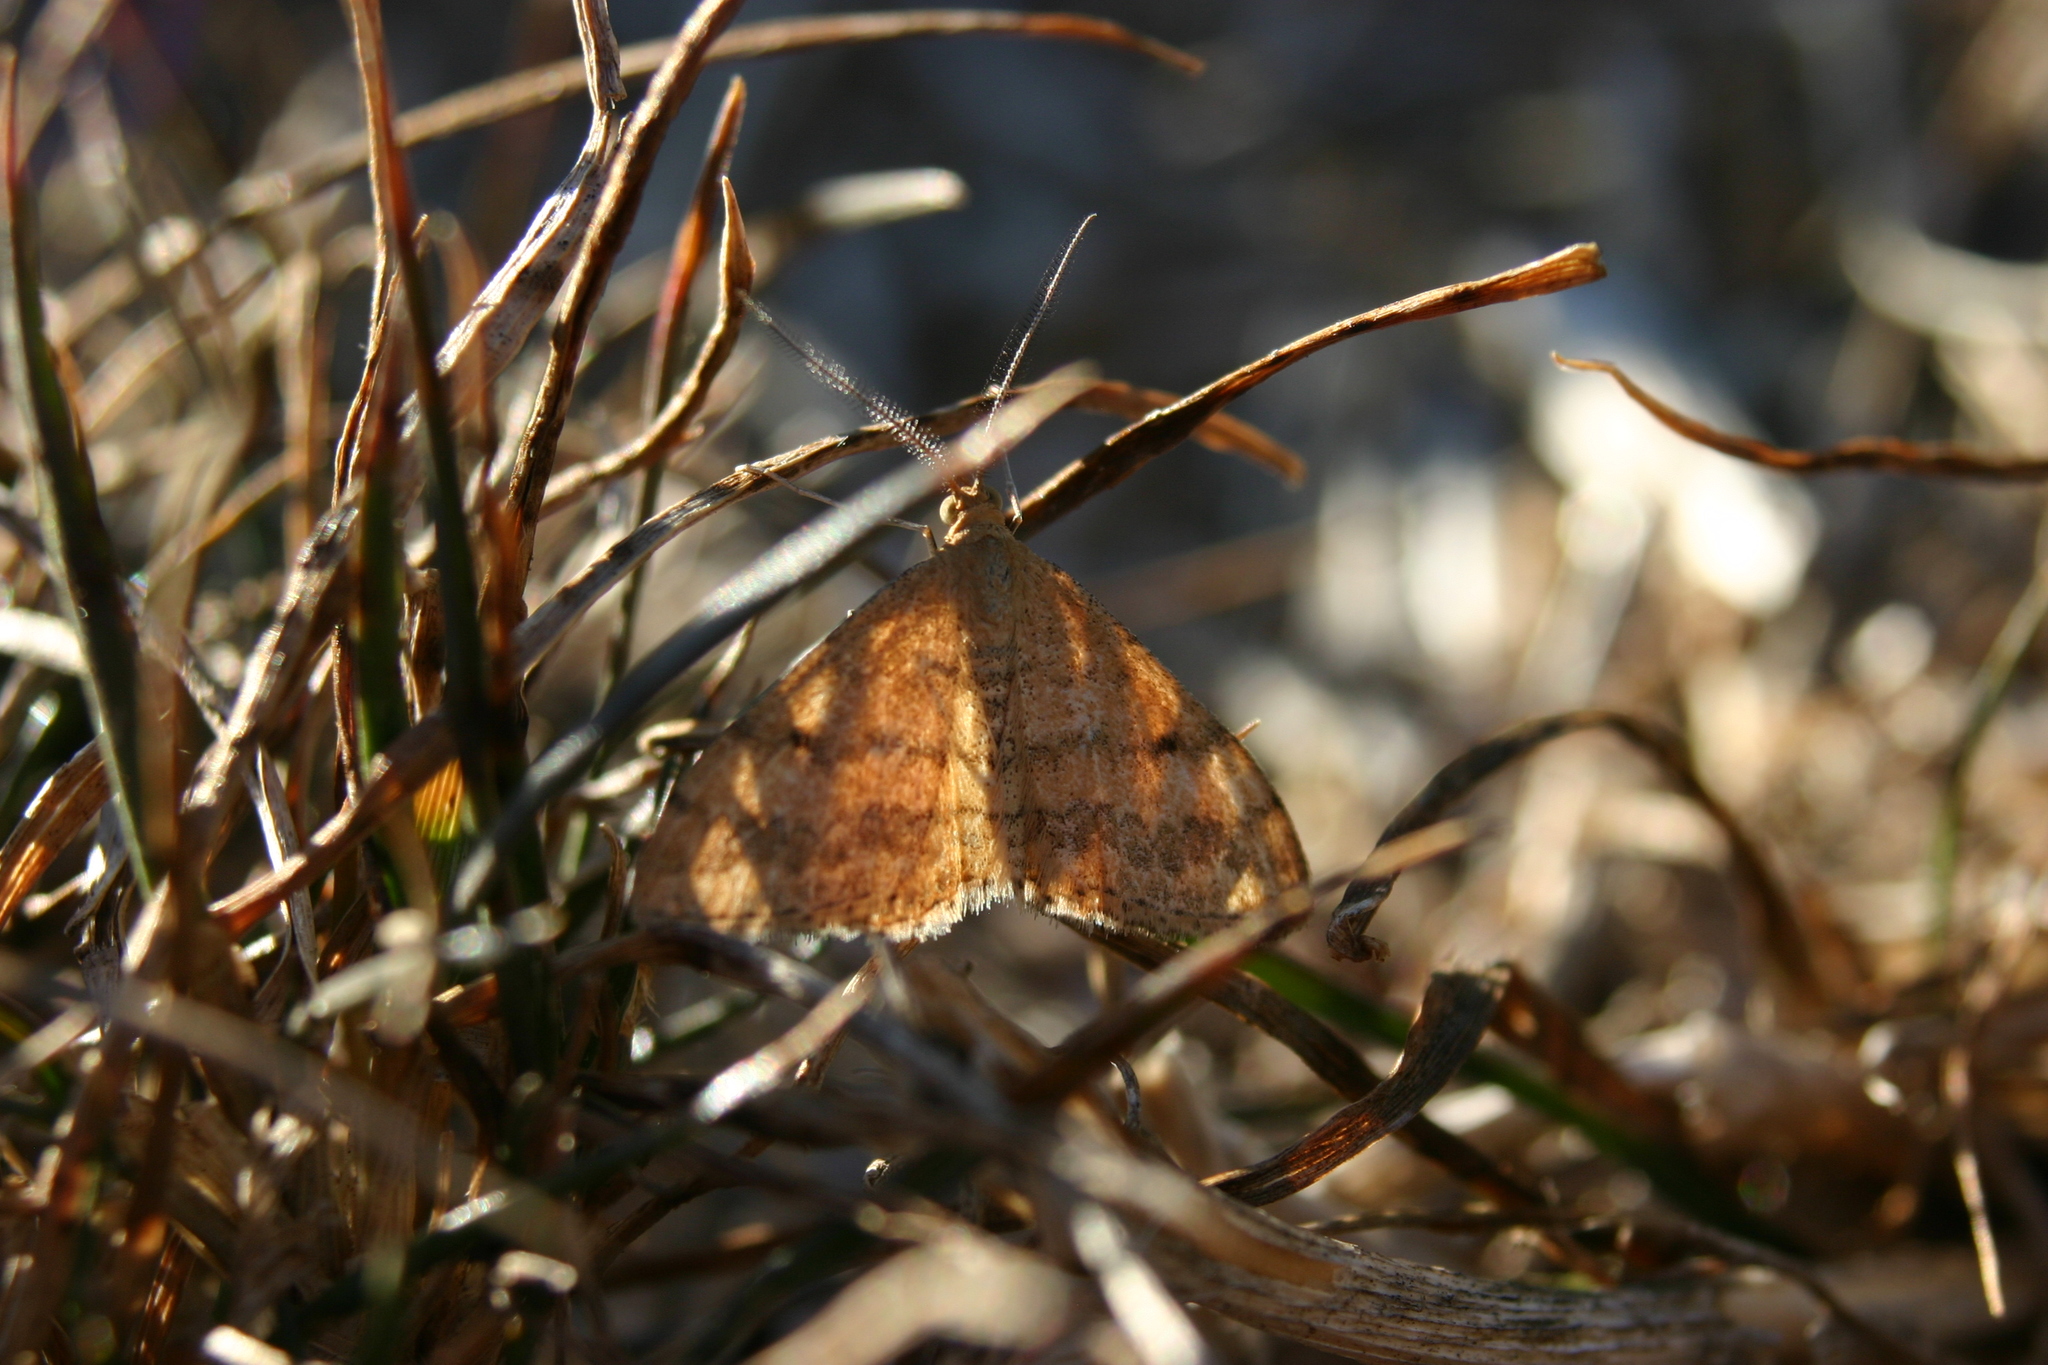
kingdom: Animalia
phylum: Arthropoda
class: Insecta
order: Lepidoptera
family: Geometridae
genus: Scopula
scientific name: Scopula rubraria
